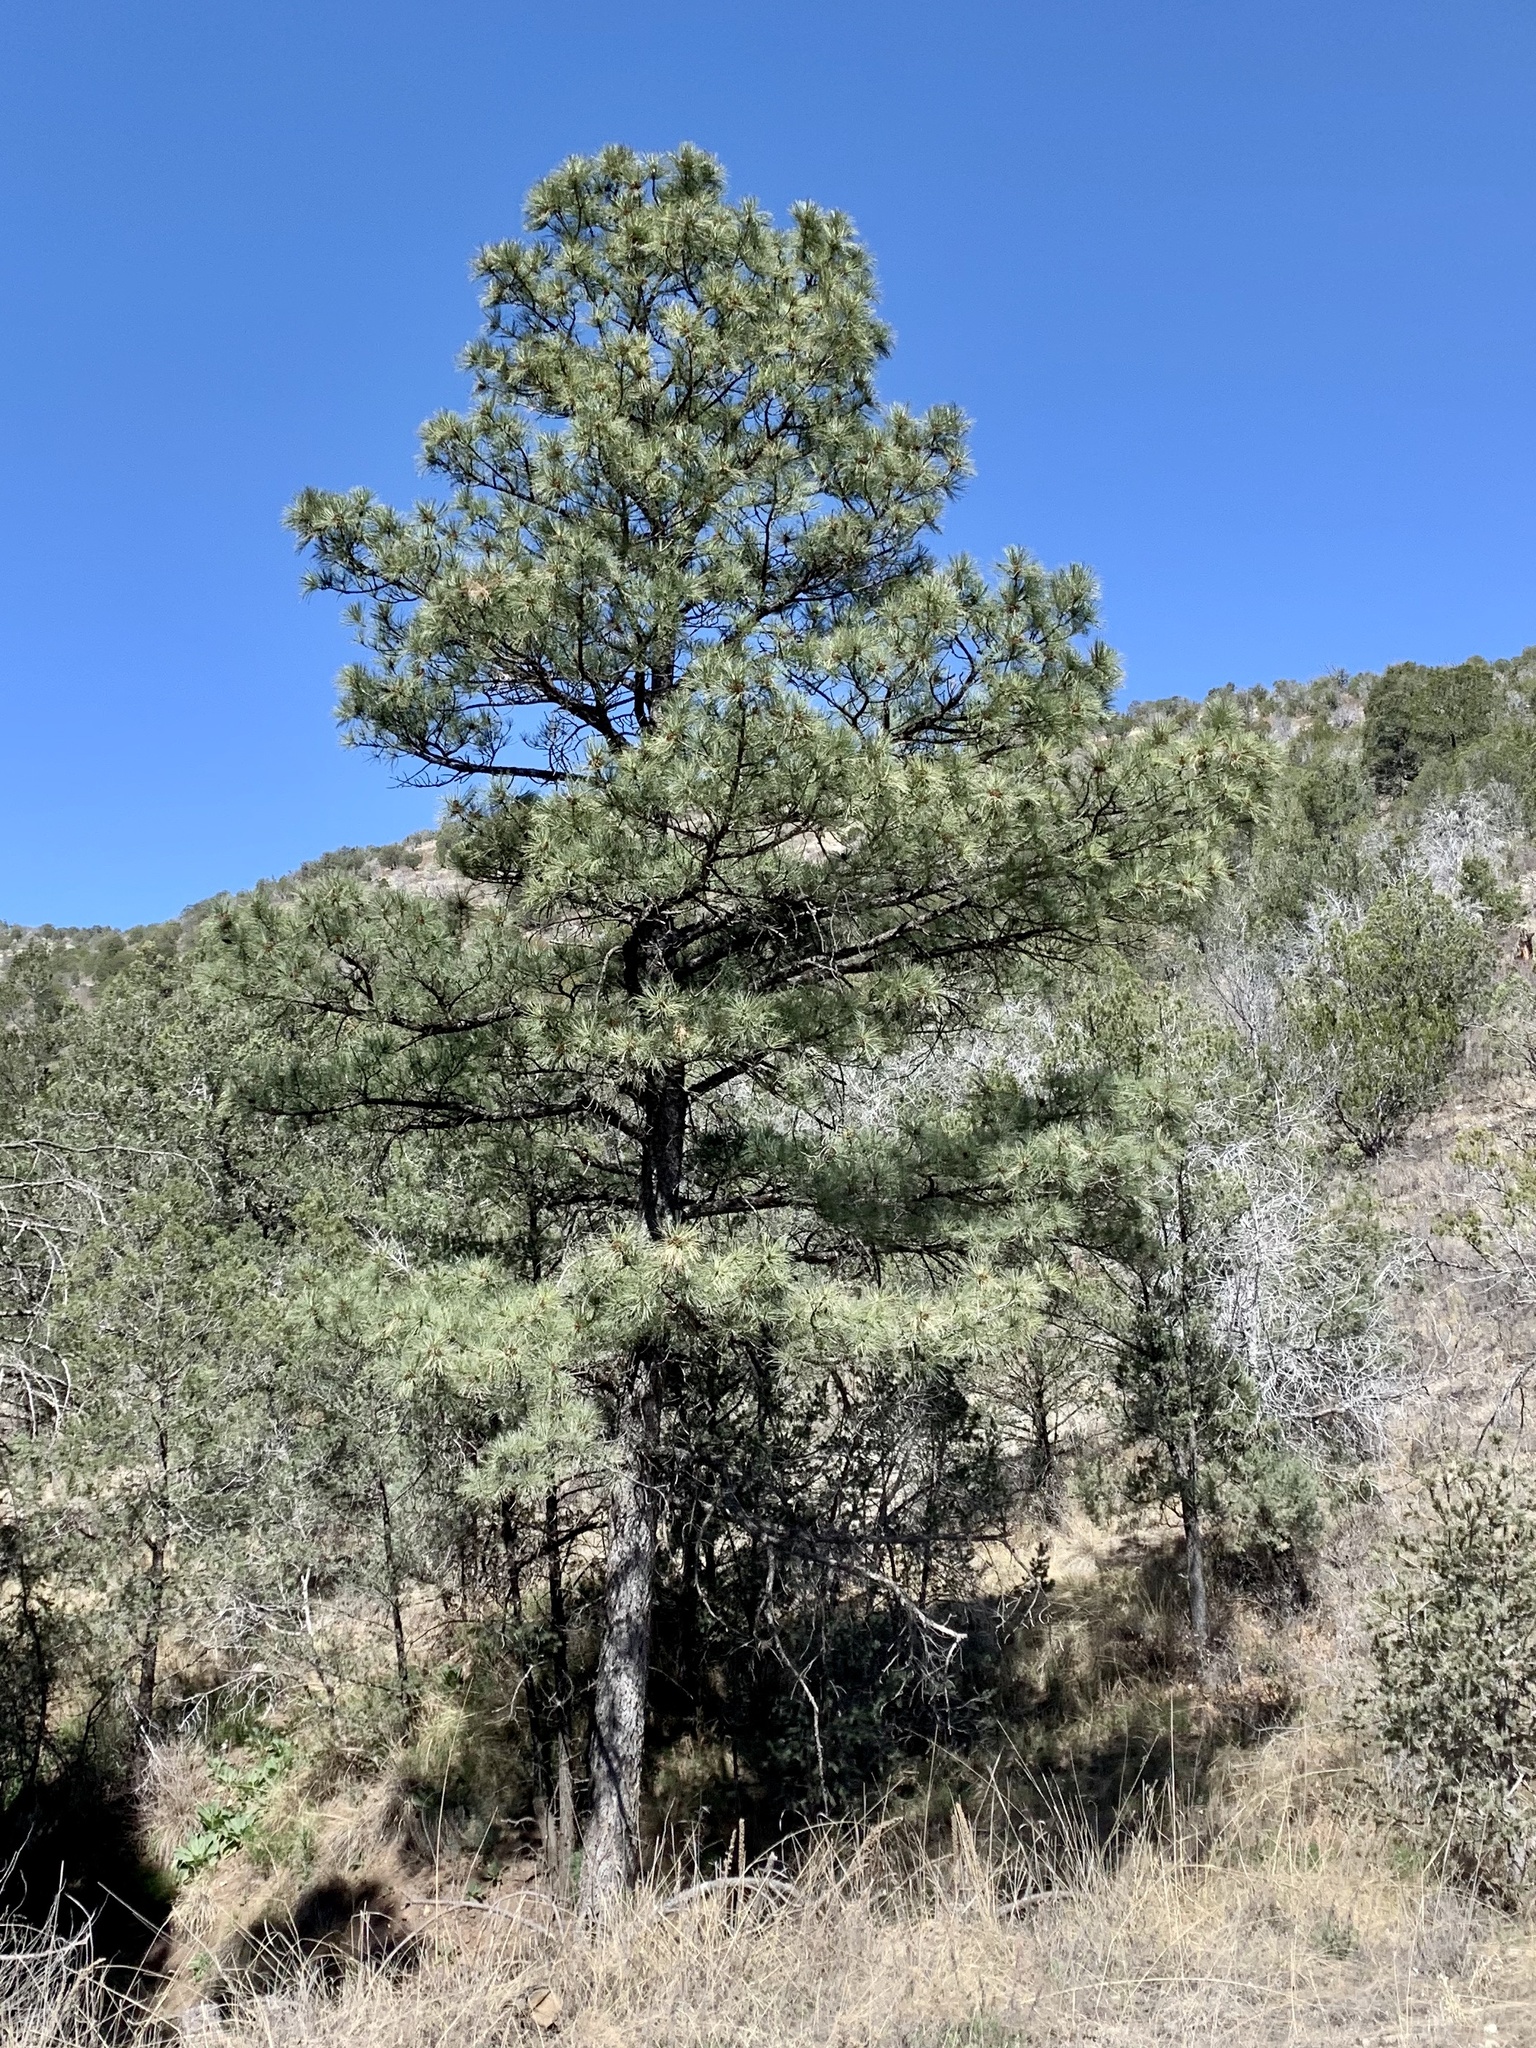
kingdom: Plantae
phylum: Tracheophyta
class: Pinopsida
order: Pinales
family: Pinaceae
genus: Pinus
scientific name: Pinus ponderosa
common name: Western yellow-pine
